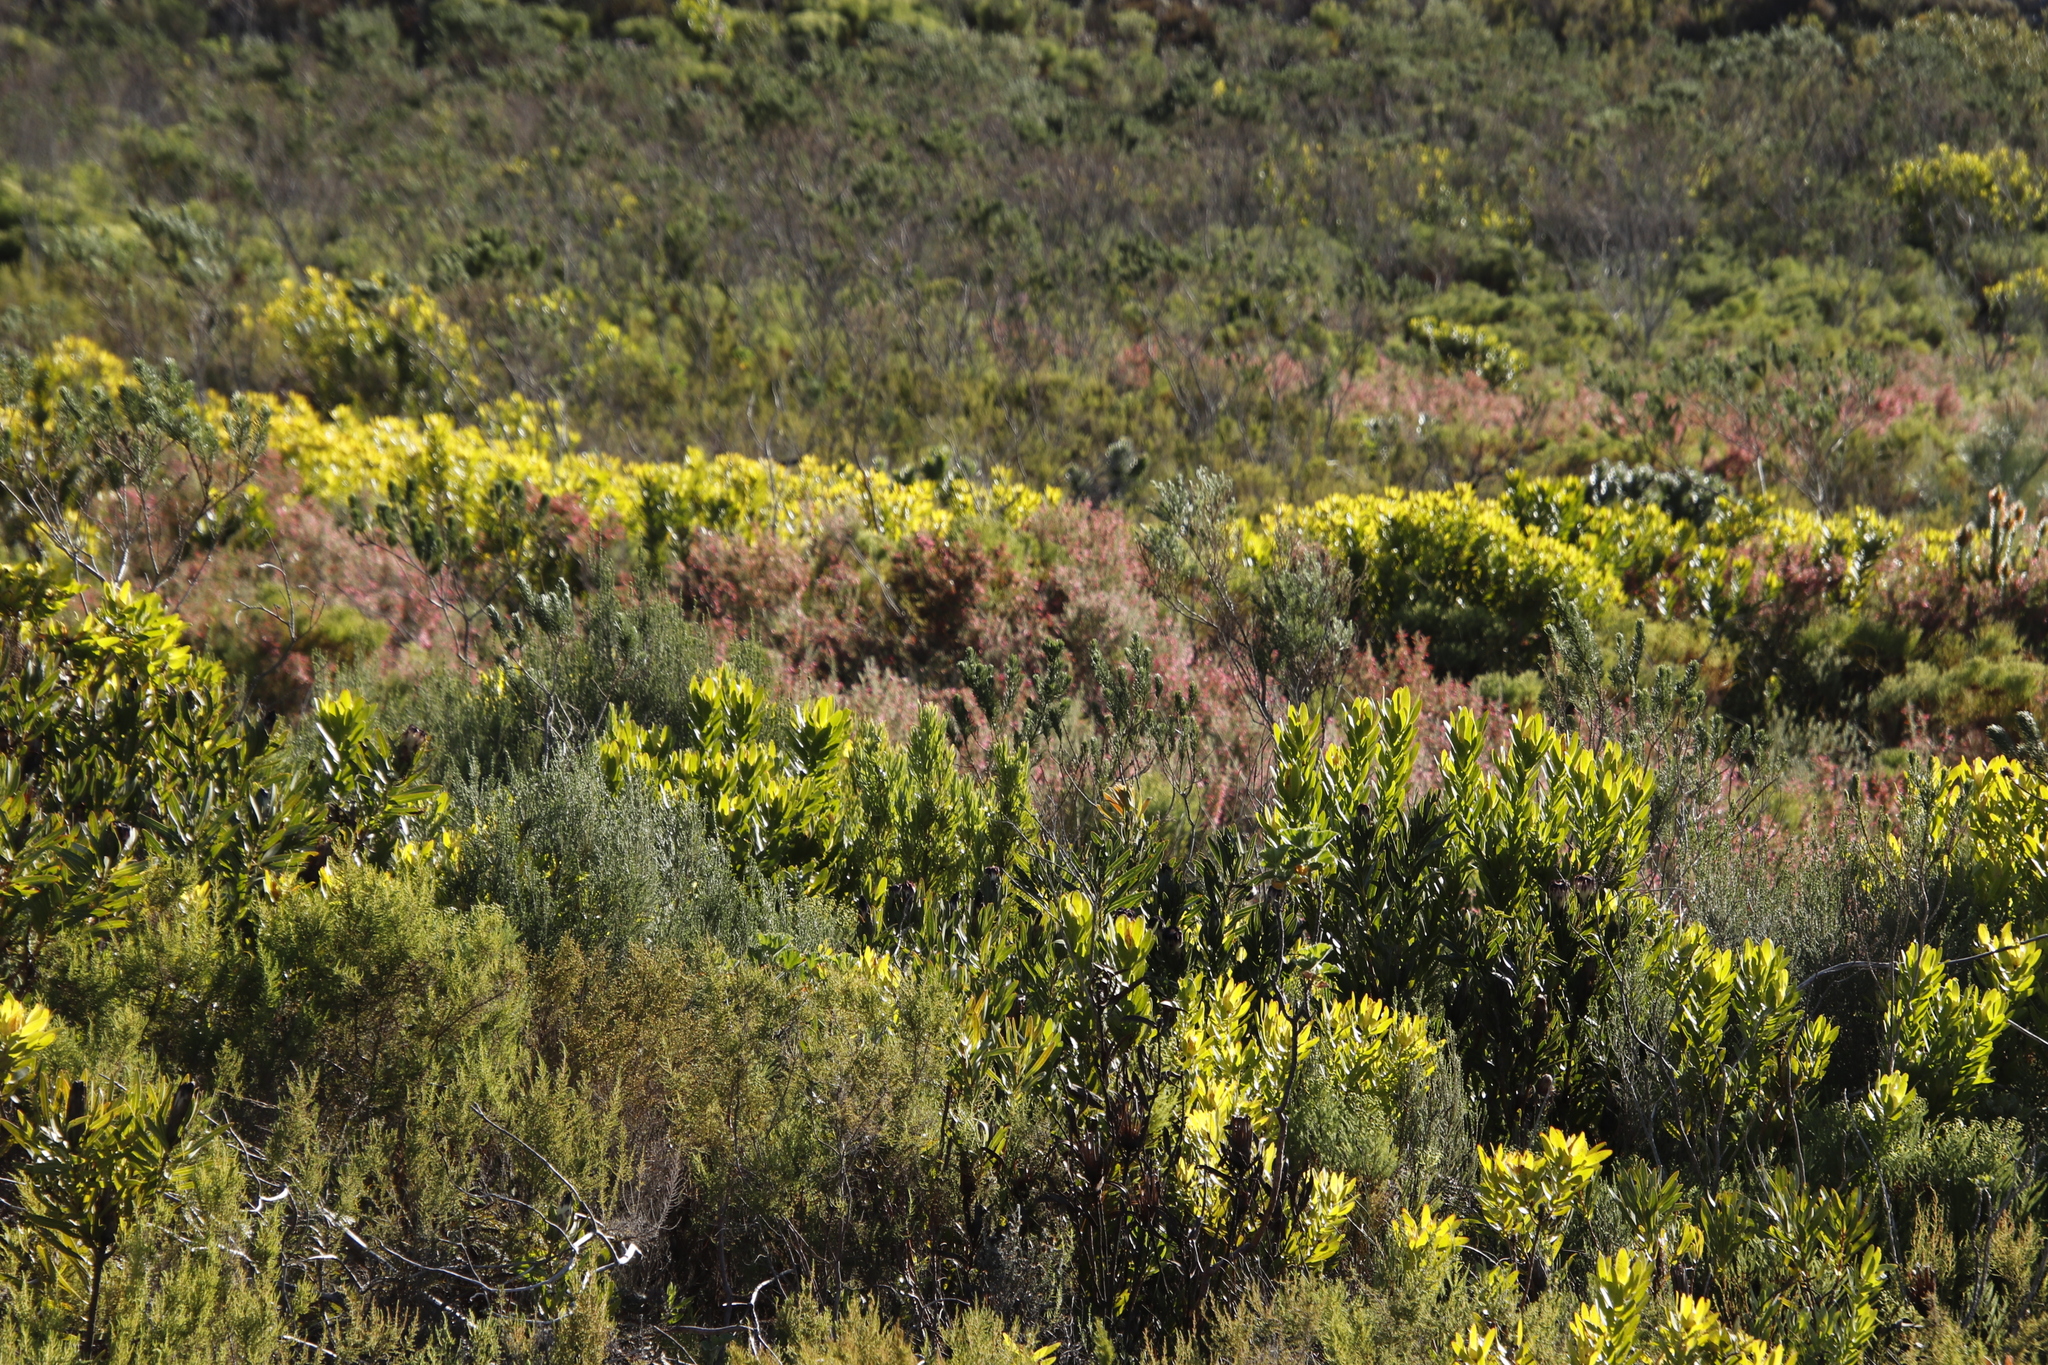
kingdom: Plantae
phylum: Tracheophyta
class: Magnoliopsida
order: Proteales
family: Proteaceae
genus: Mimetes
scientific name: Mimetes hirtus
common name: Marsh pagoda
